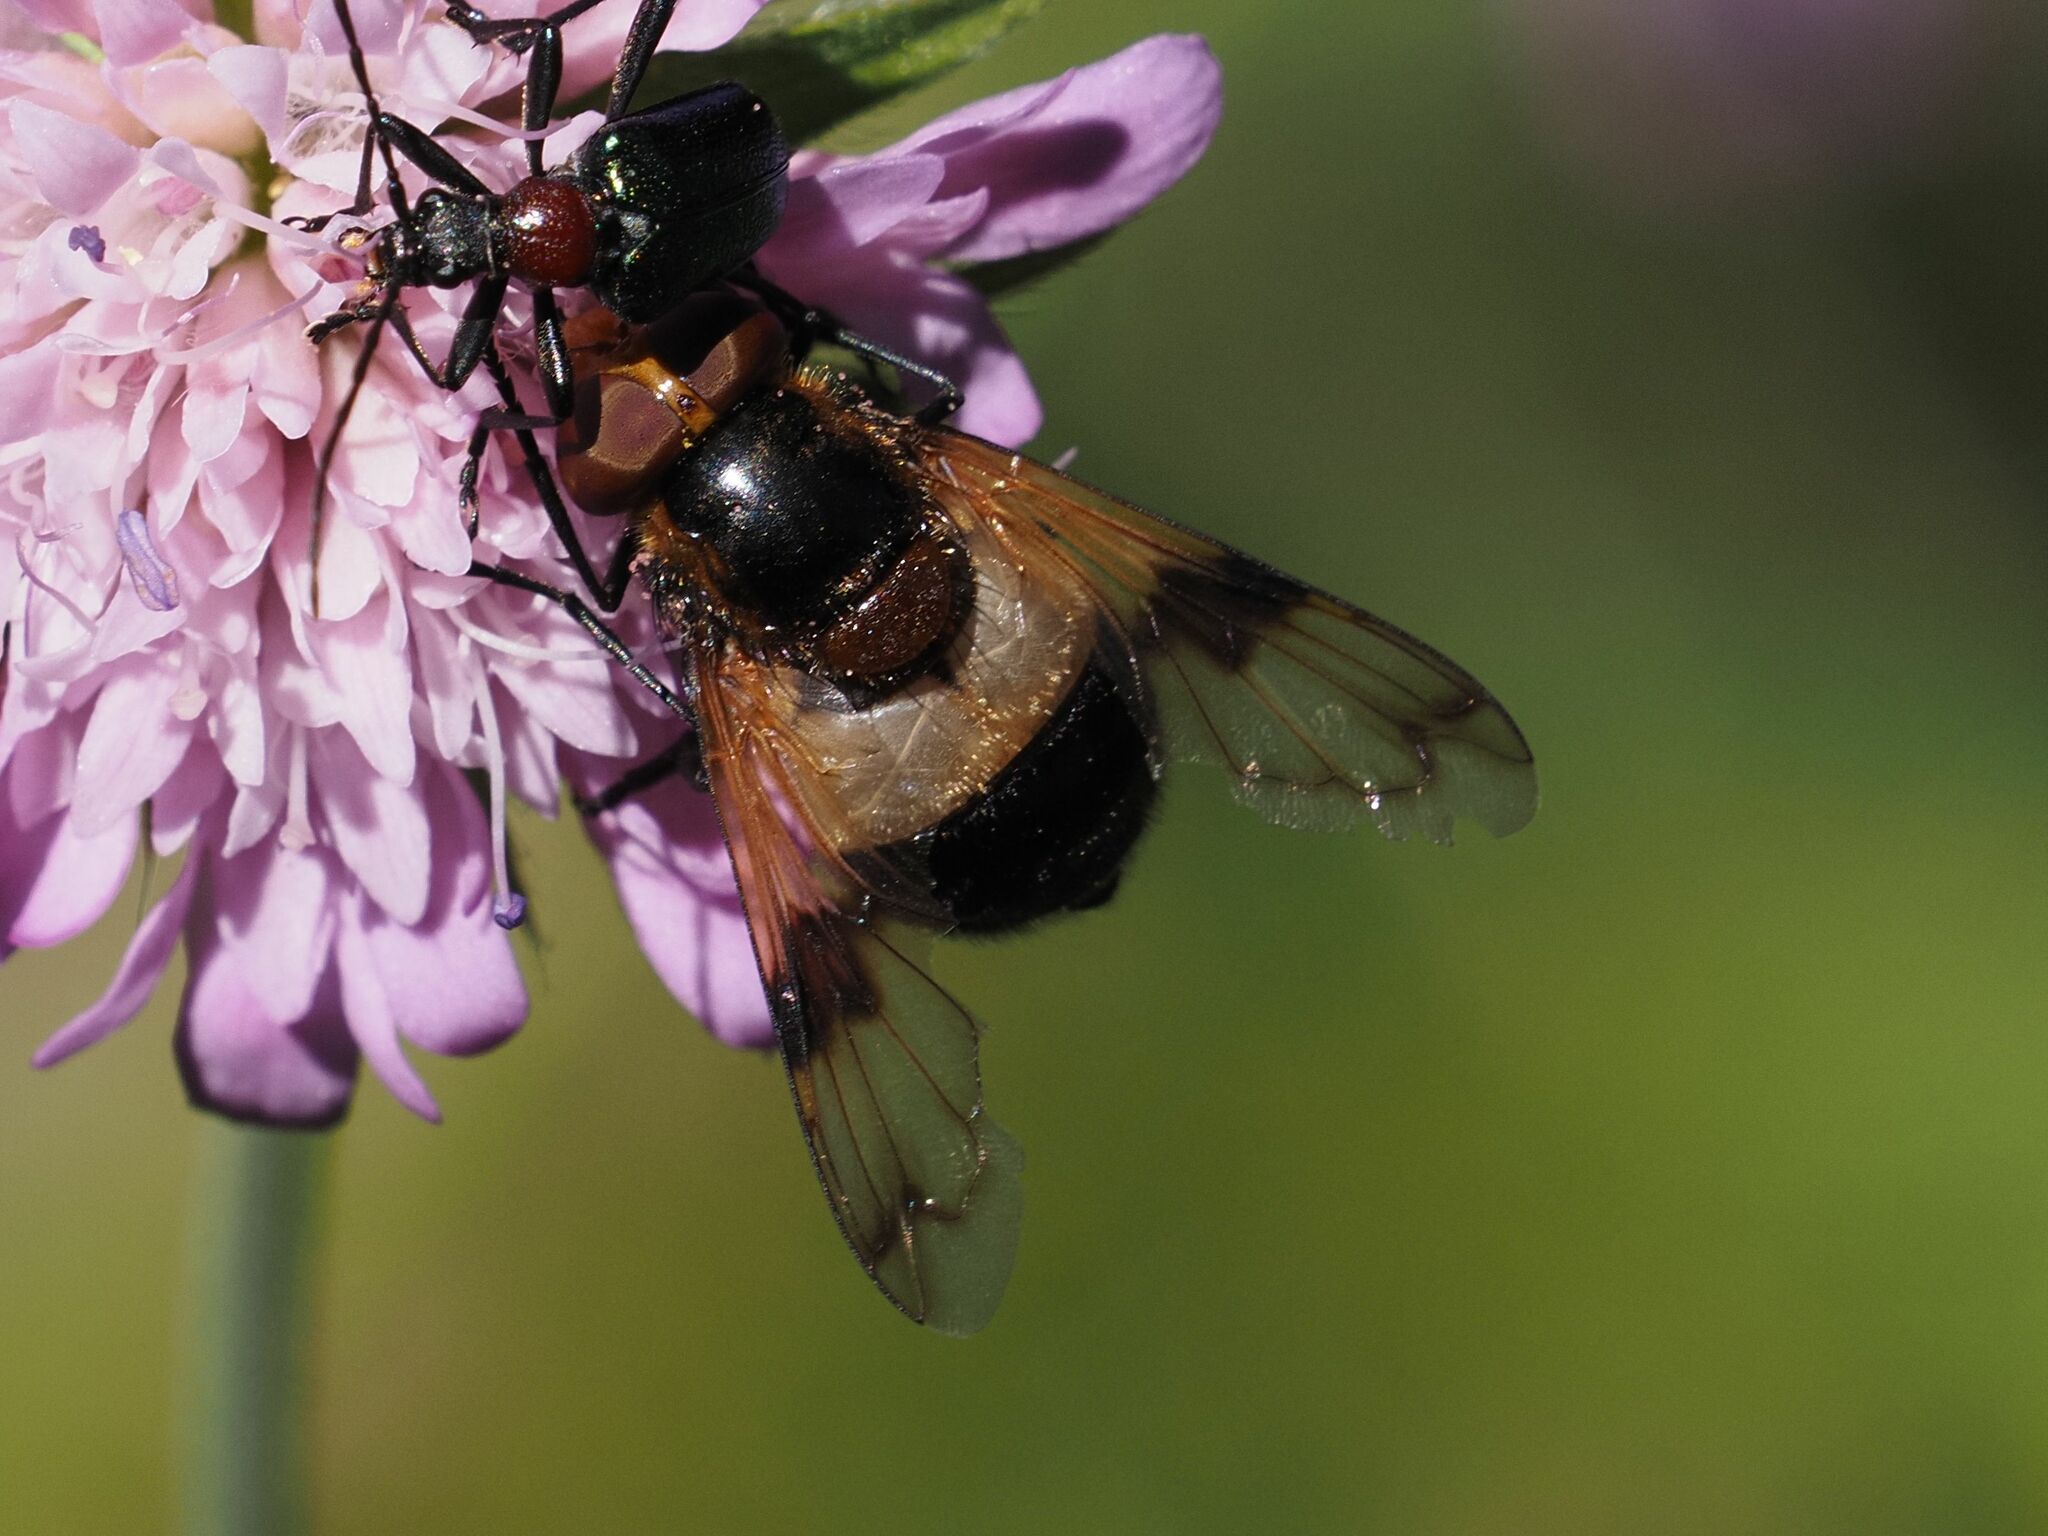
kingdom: Animalia
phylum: Arthropoda
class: Insecta
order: Diptera
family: Syrphidae
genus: Volucella
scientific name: Volucella pellucens
